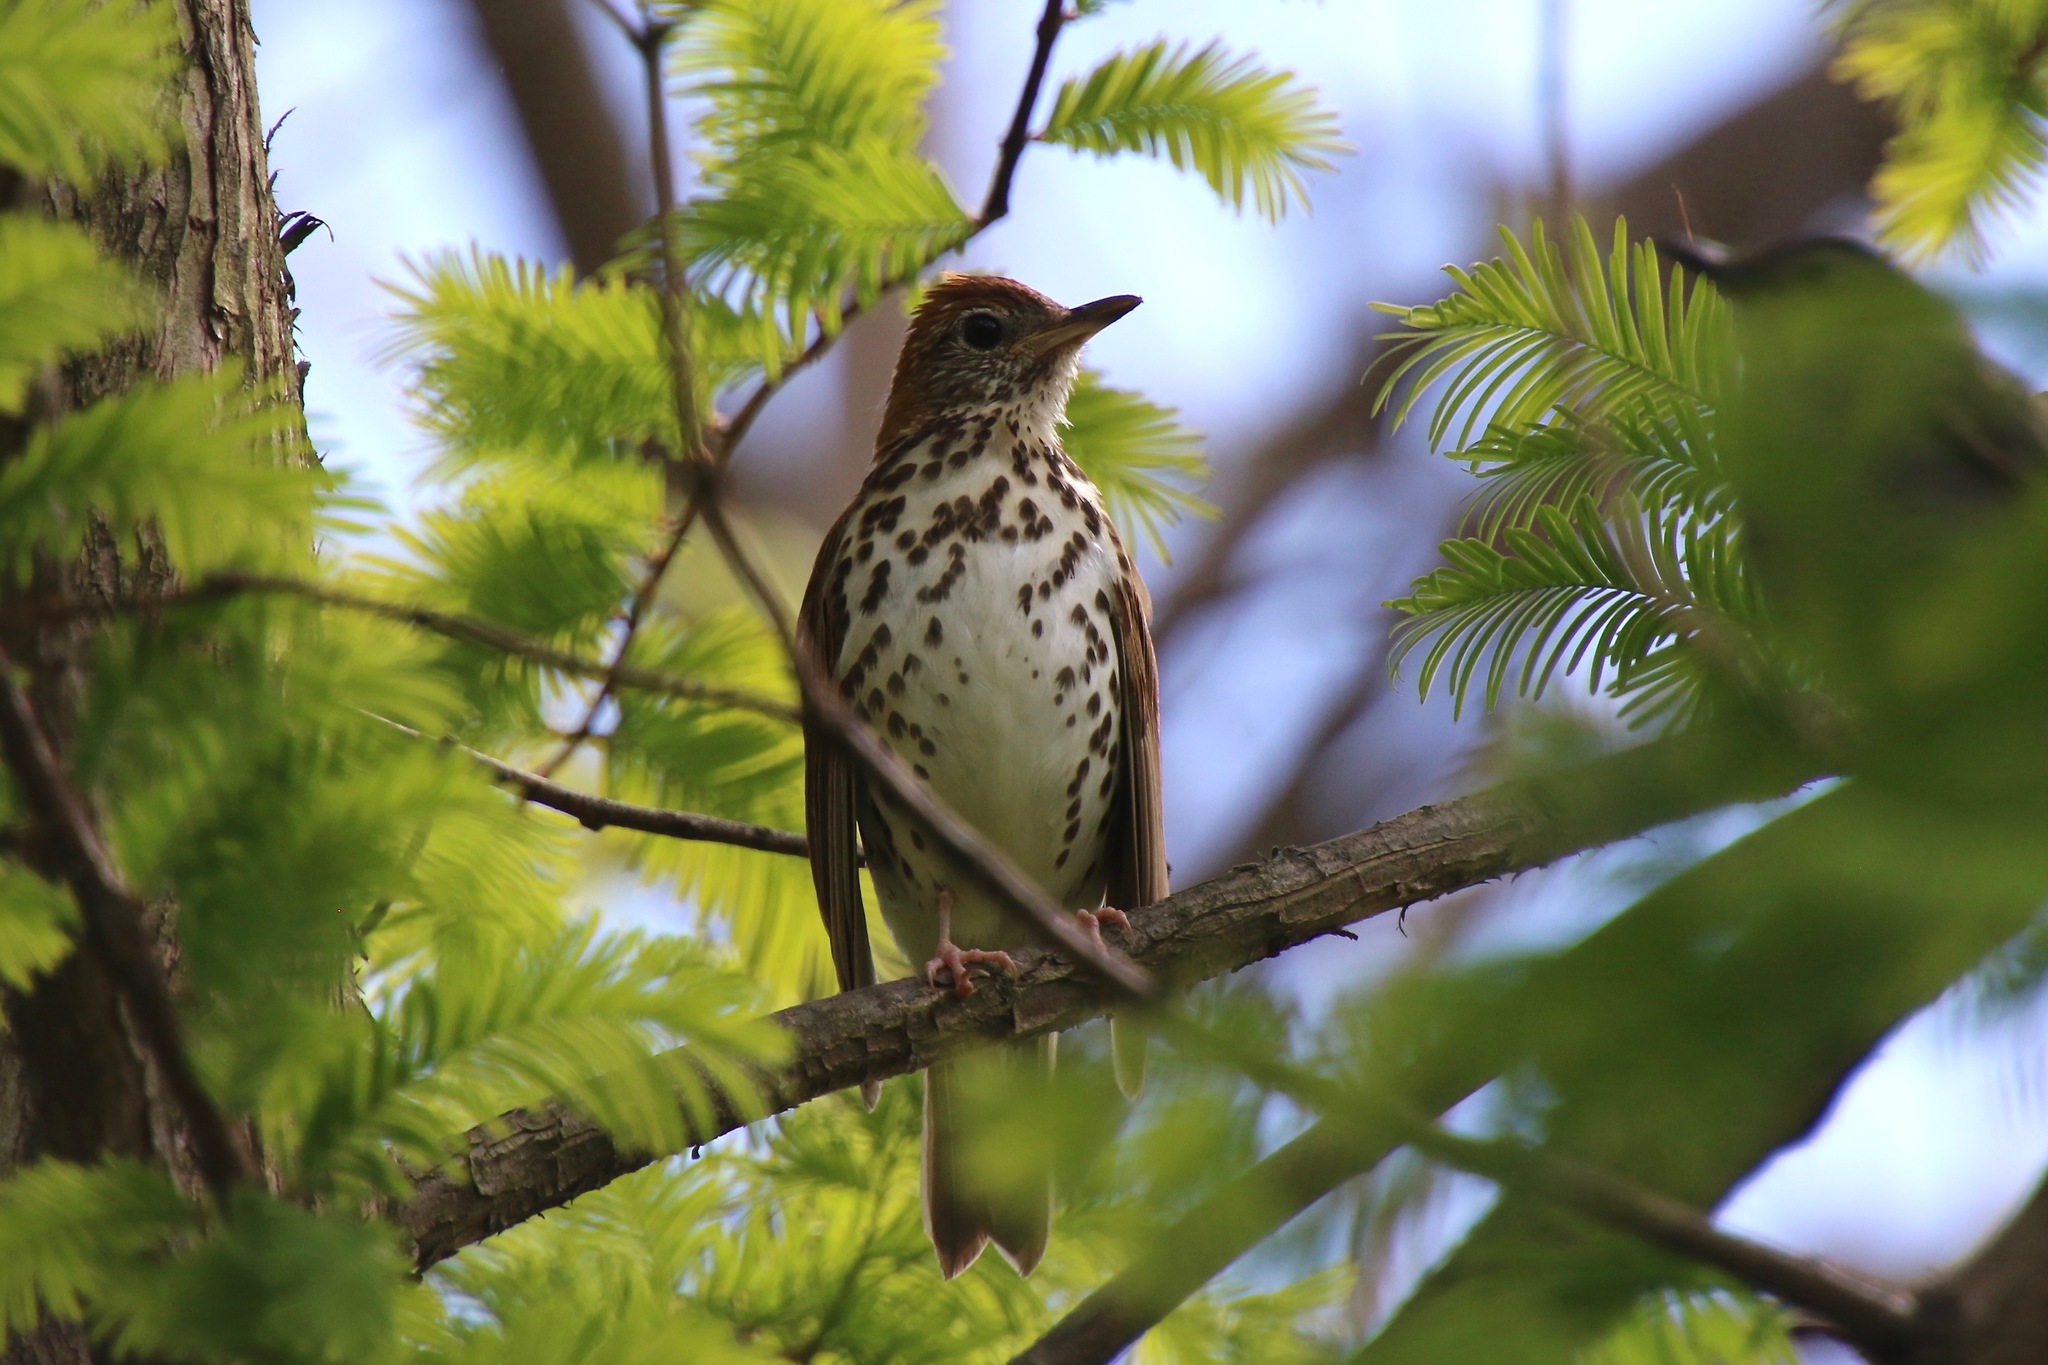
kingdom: Animalia
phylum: Chordata
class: Aves
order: Passeriformes
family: Turdidae
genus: Hylocichla
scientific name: Hylocichla mustelina
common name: Wood thrush
